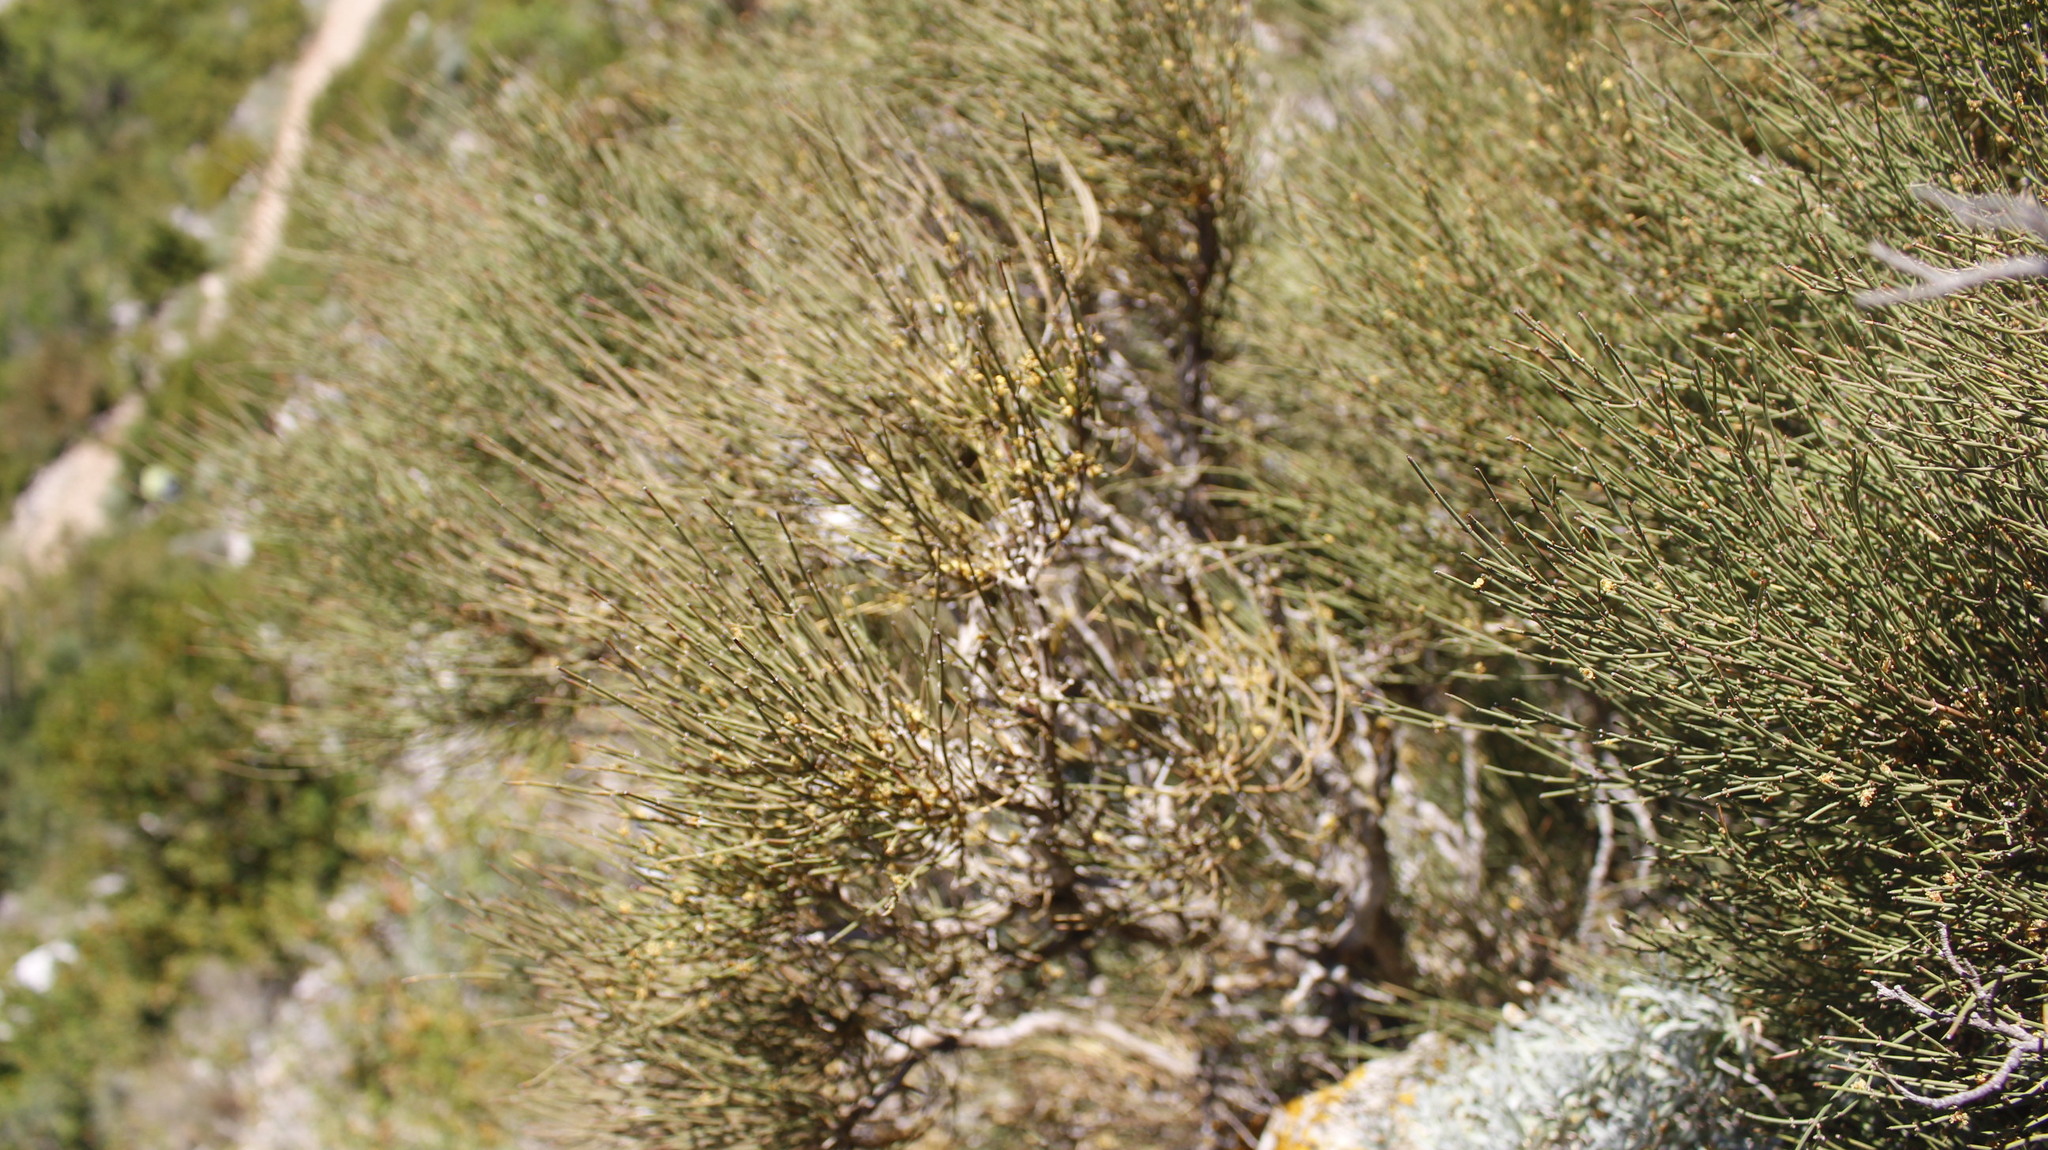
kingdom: Plantae
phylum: Tracheophyta
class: Gnetopsida
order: Ephedrales
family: Ephedraceae
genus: Ephedra
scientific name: Ephedra major
